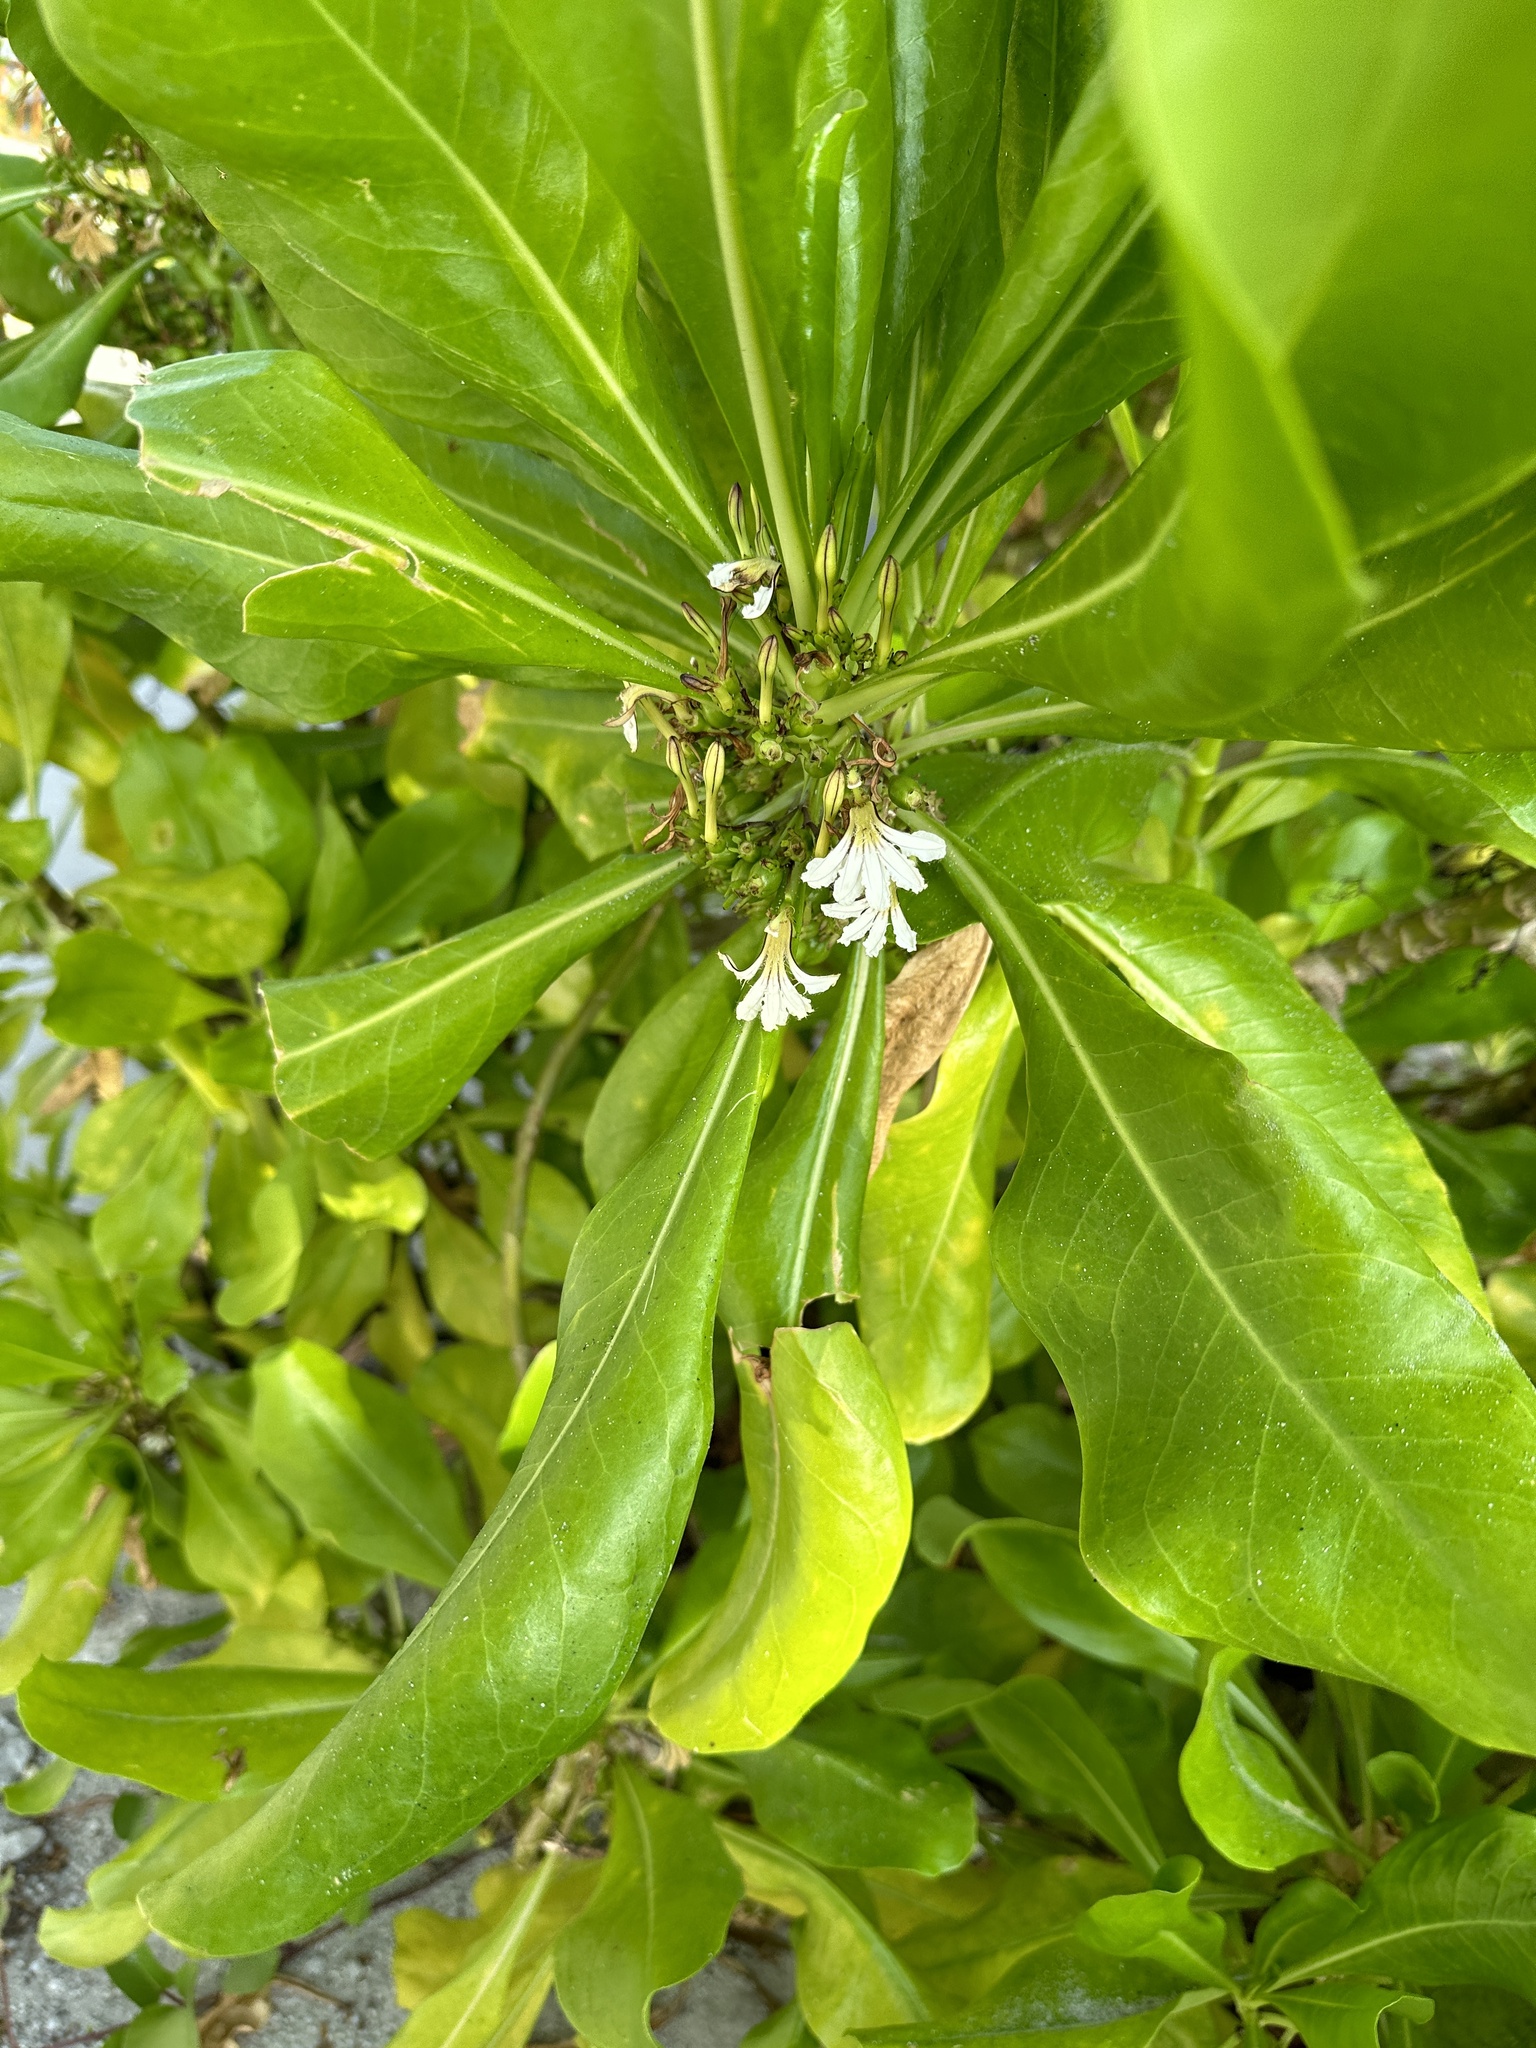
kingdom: Plantae
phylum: Tracheophyta
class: Magnoliopsida
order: Asterales
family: Goodeniaceae
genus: Scaevola
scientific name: Scaevola taccada
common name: Sea lettucetree
